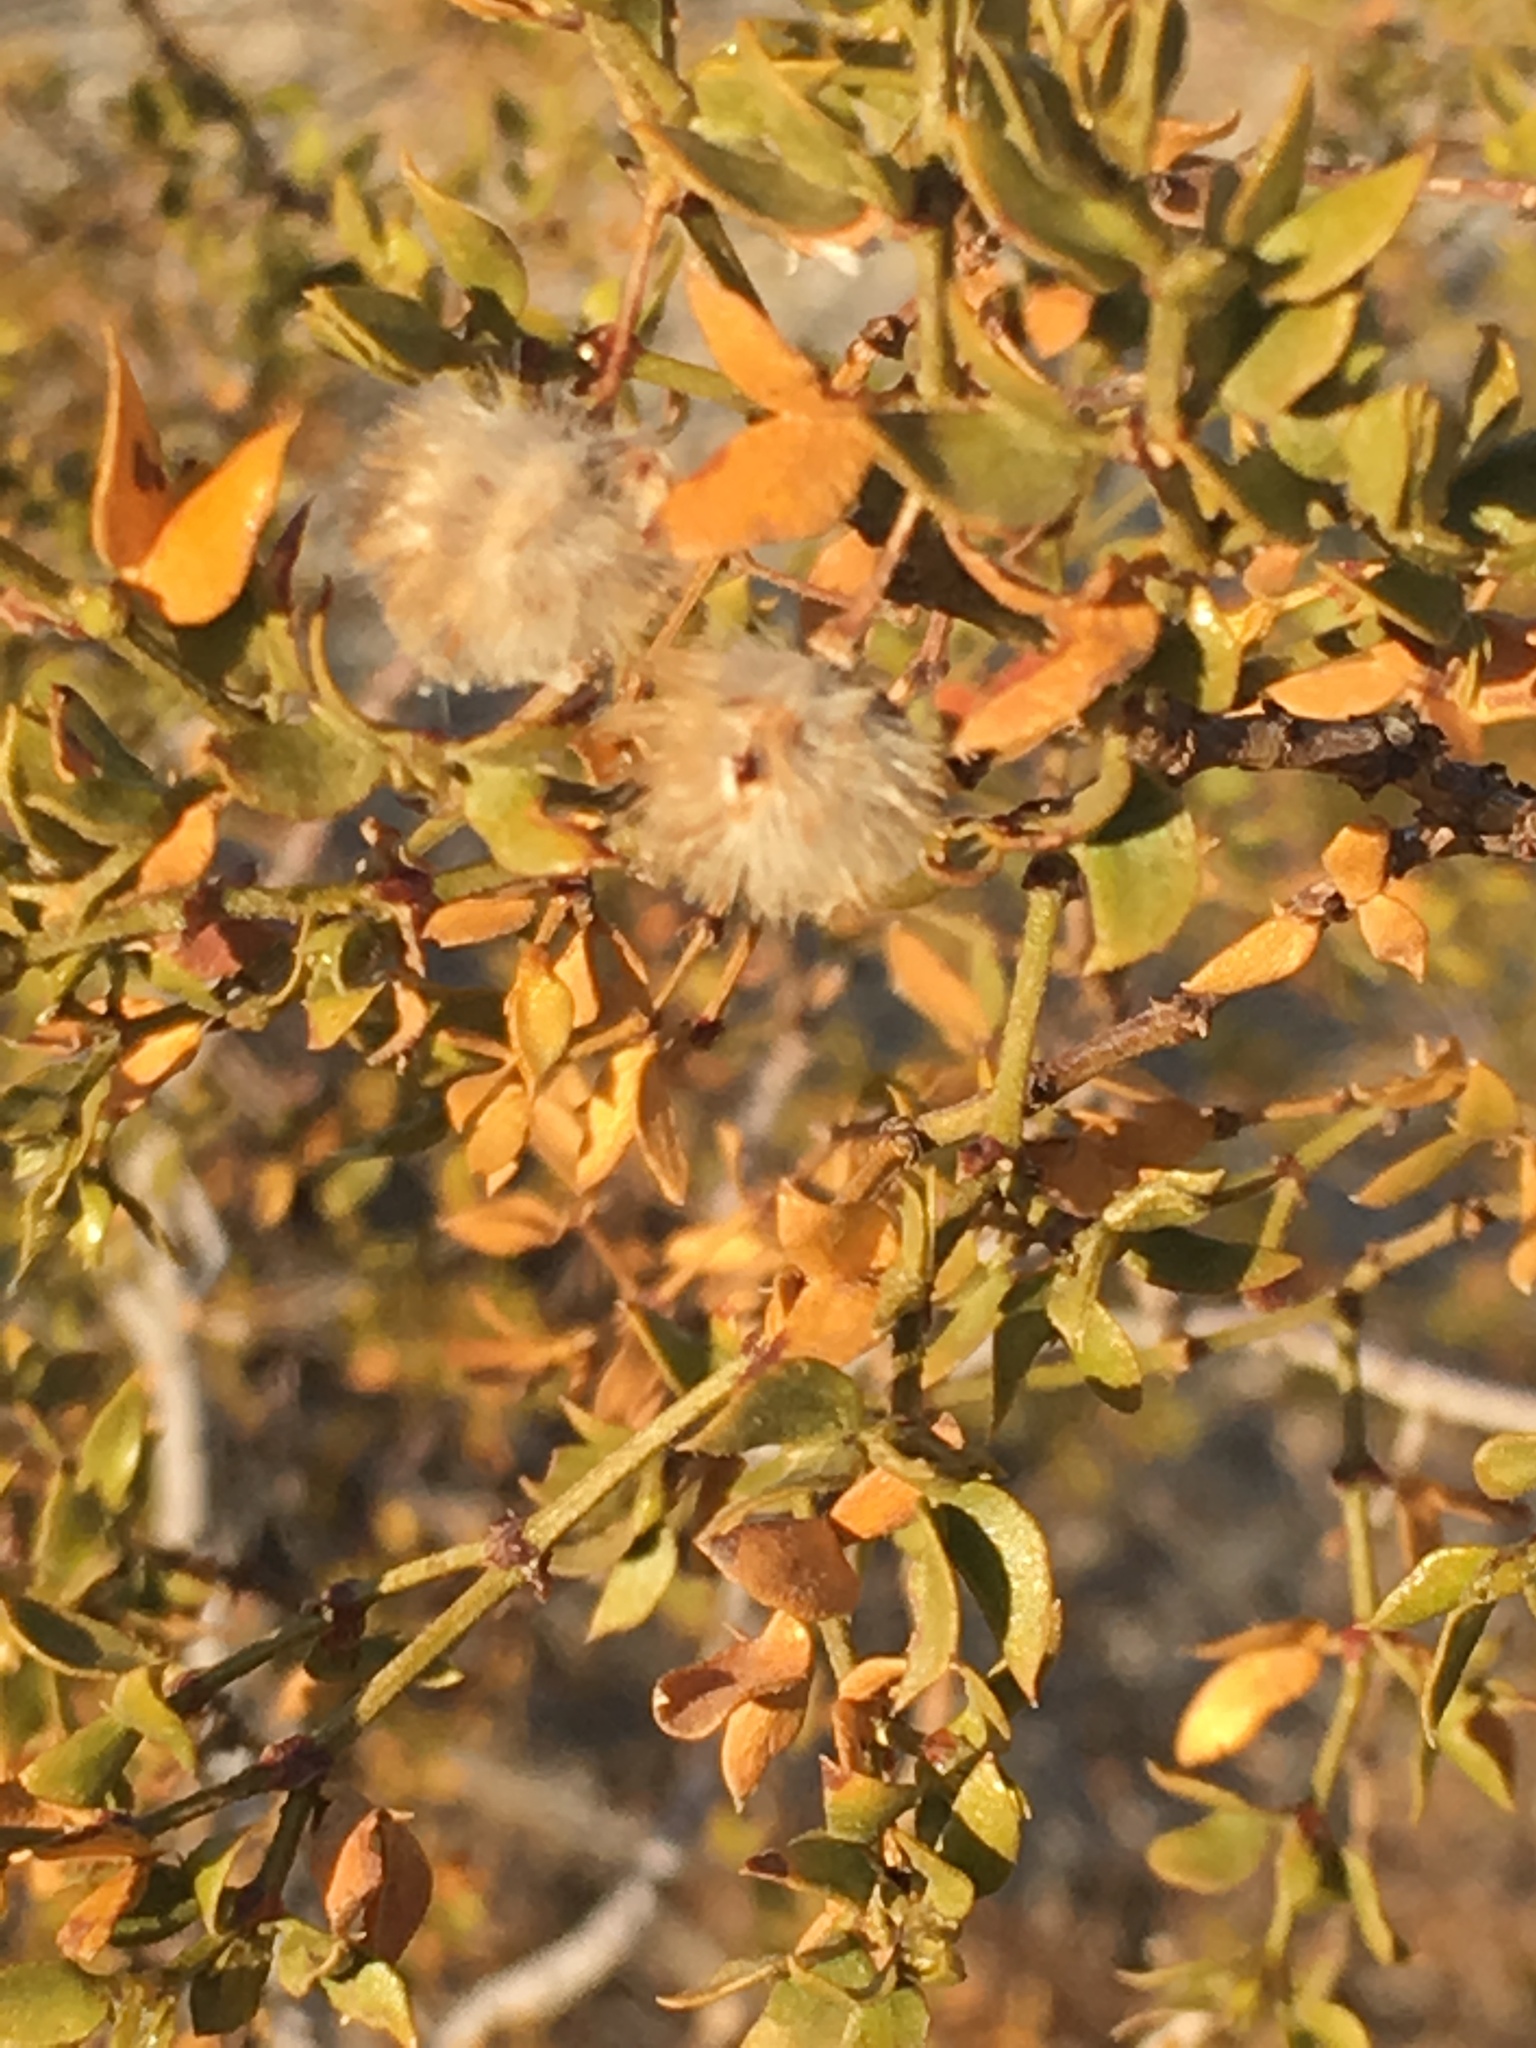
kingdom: Plantae
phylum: Tracheophyta
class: Magnoliopsida
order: Zygophyllales
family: Zygophyllaceae
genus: Larrea
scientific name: Larrea tridentata
